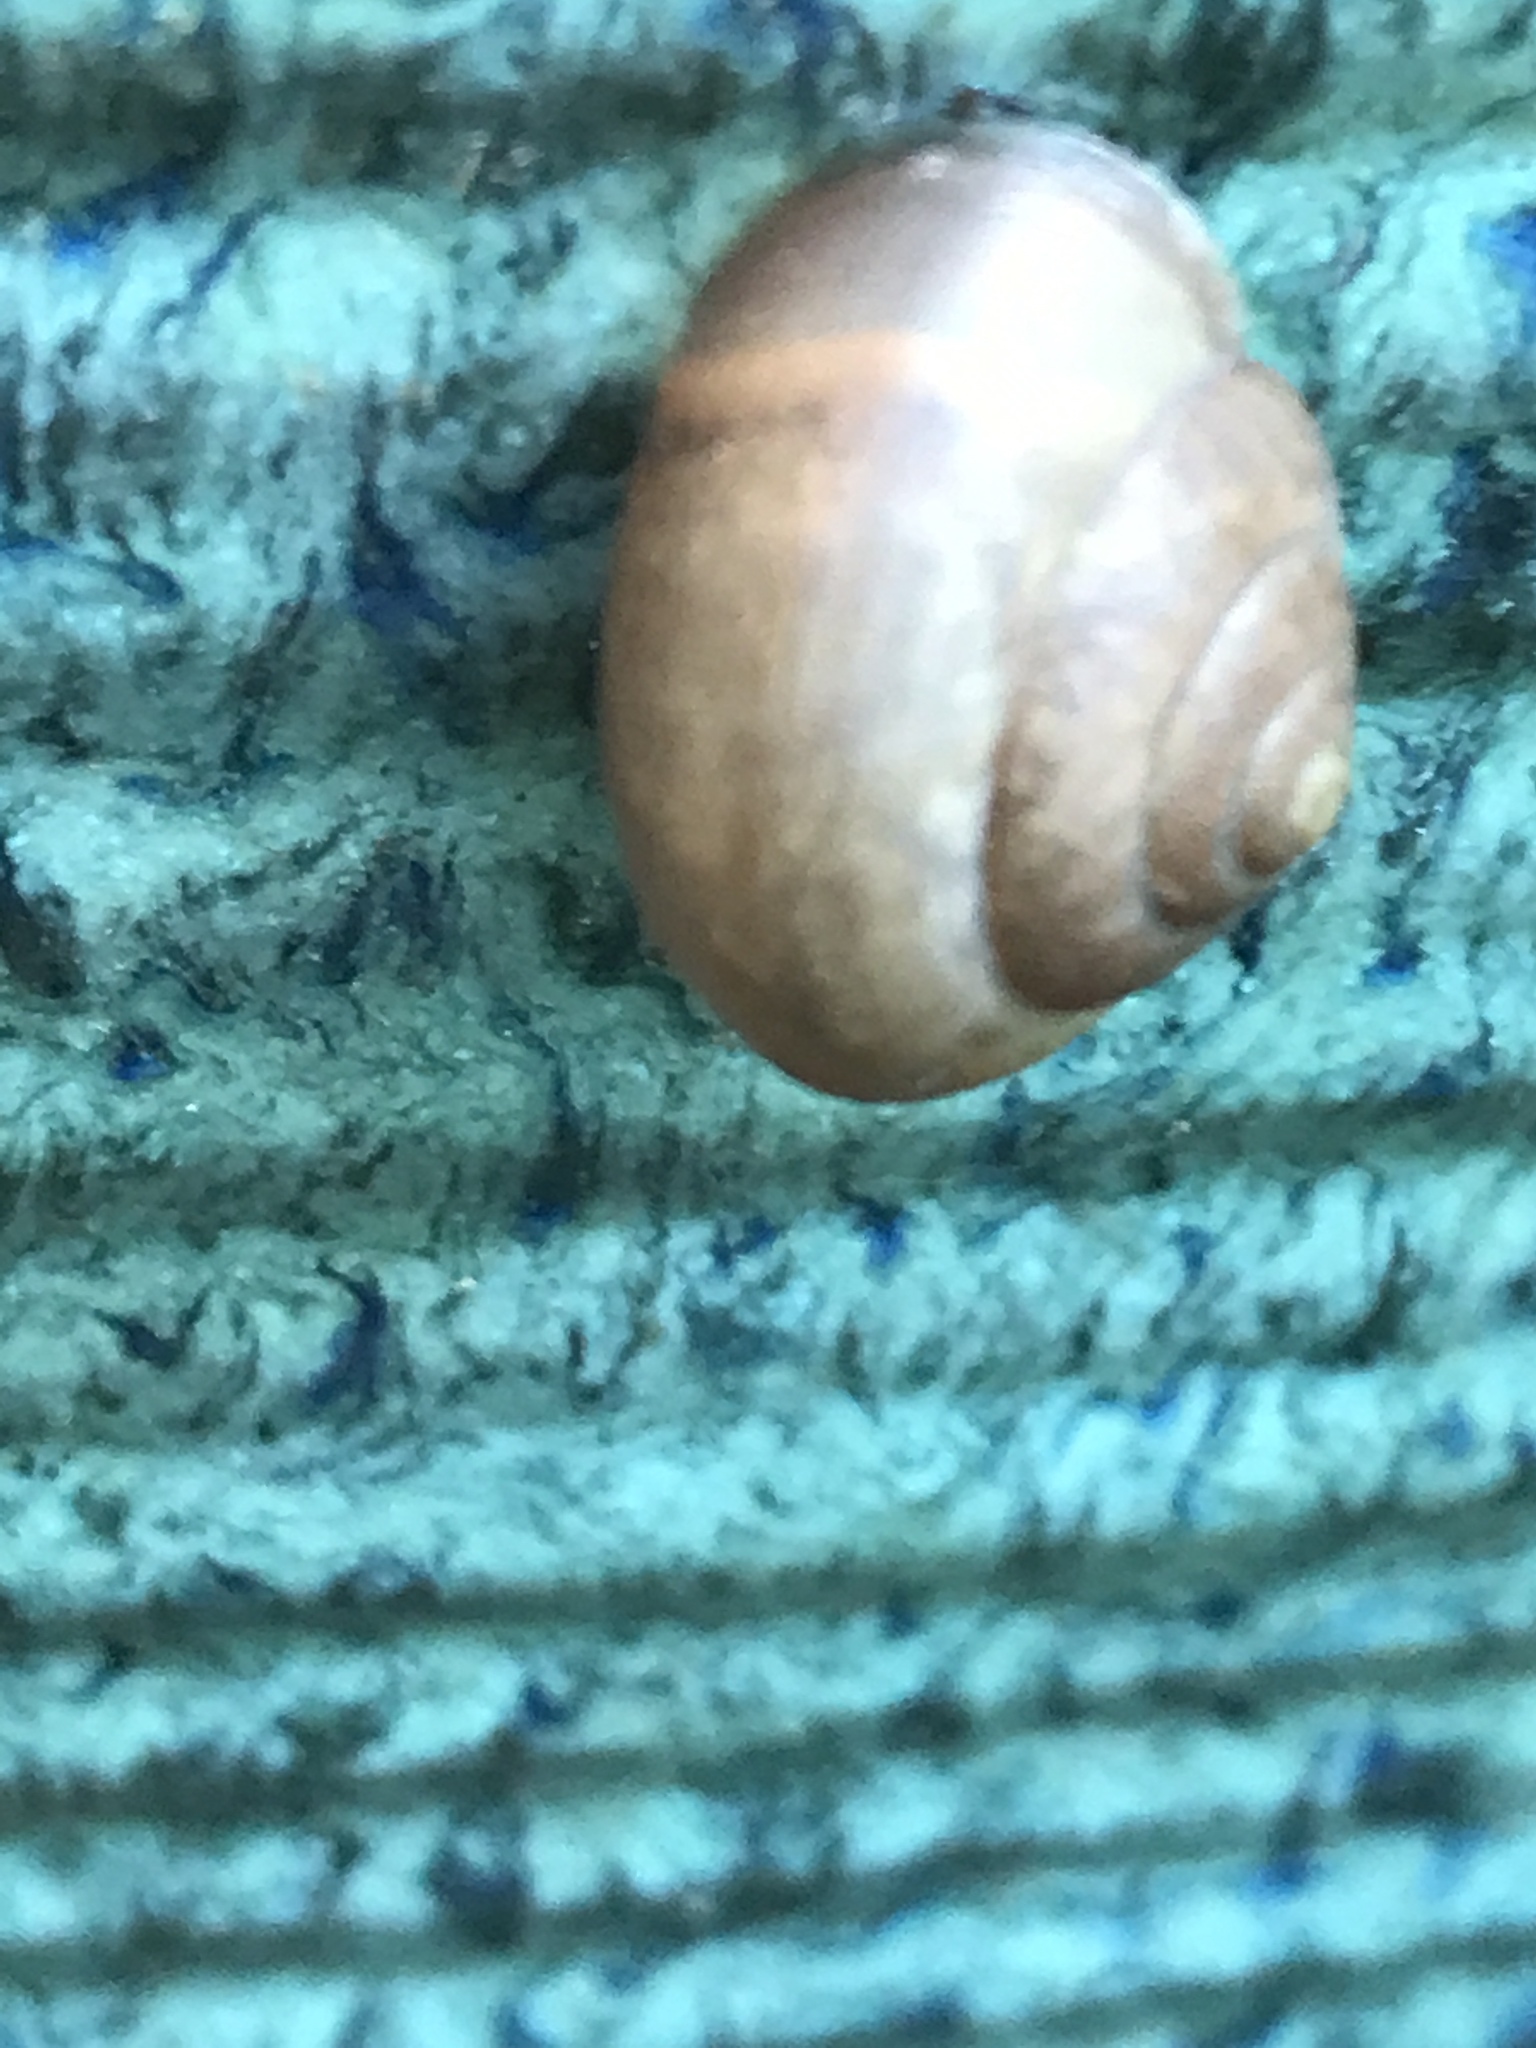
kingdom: Animalia
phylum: Mollusca
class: Gastropoda
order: Stylommatophora
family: Camaenidae
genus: Bradybaena
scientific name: Bradybaena similaris
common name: Asian trampsnail
